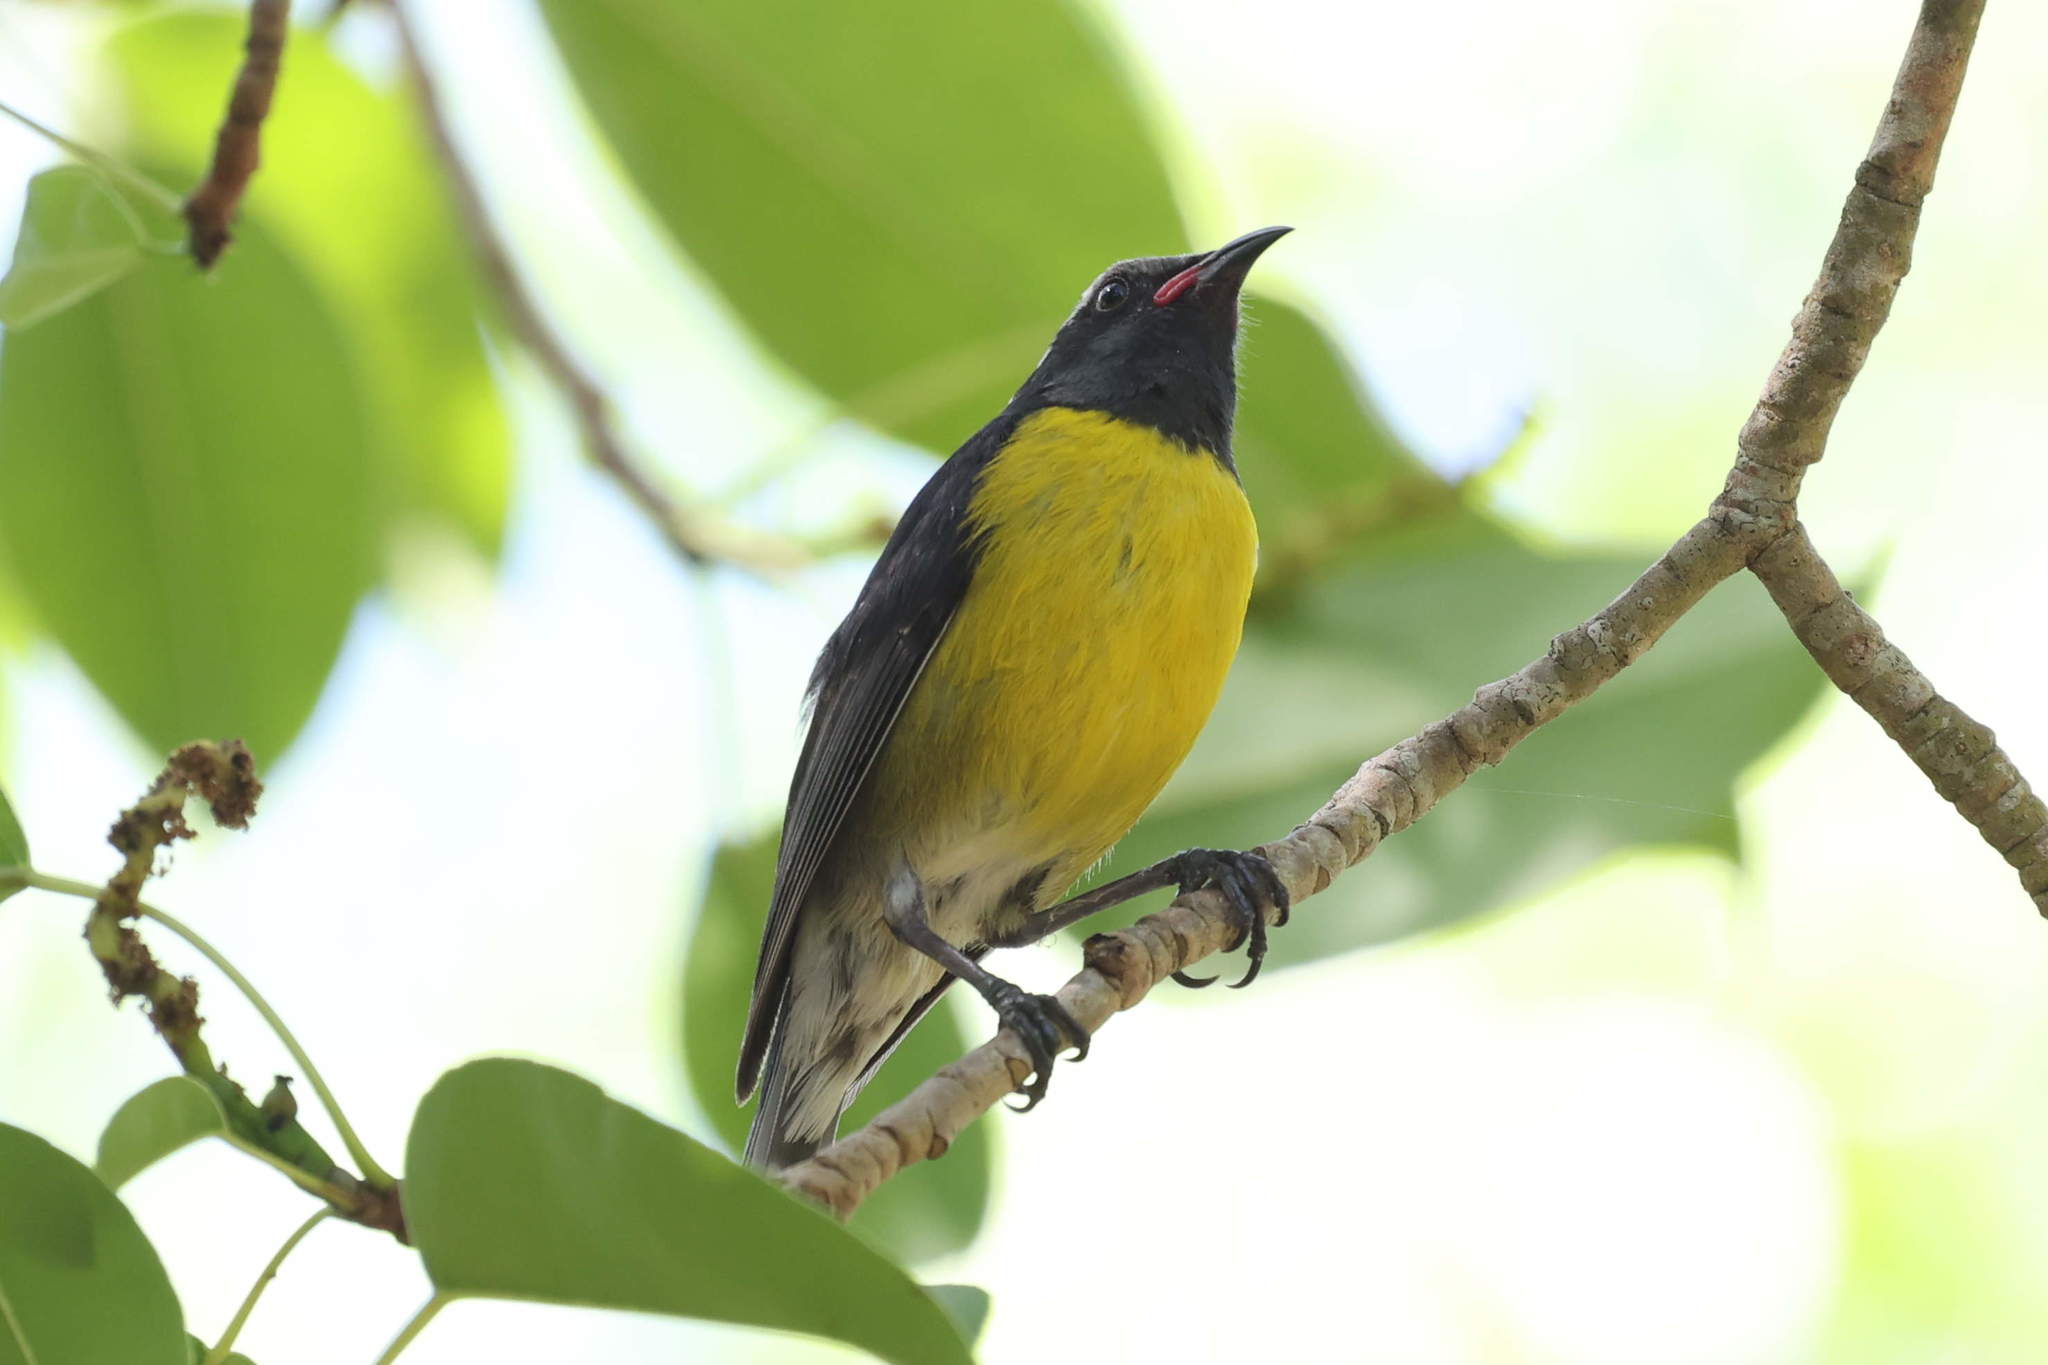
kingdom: Animalia
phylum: Chordata
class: Aves
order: Passeriformes
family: Thraupidae
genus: Coereba
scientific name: Coereba flaveola
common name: Bananaquit
